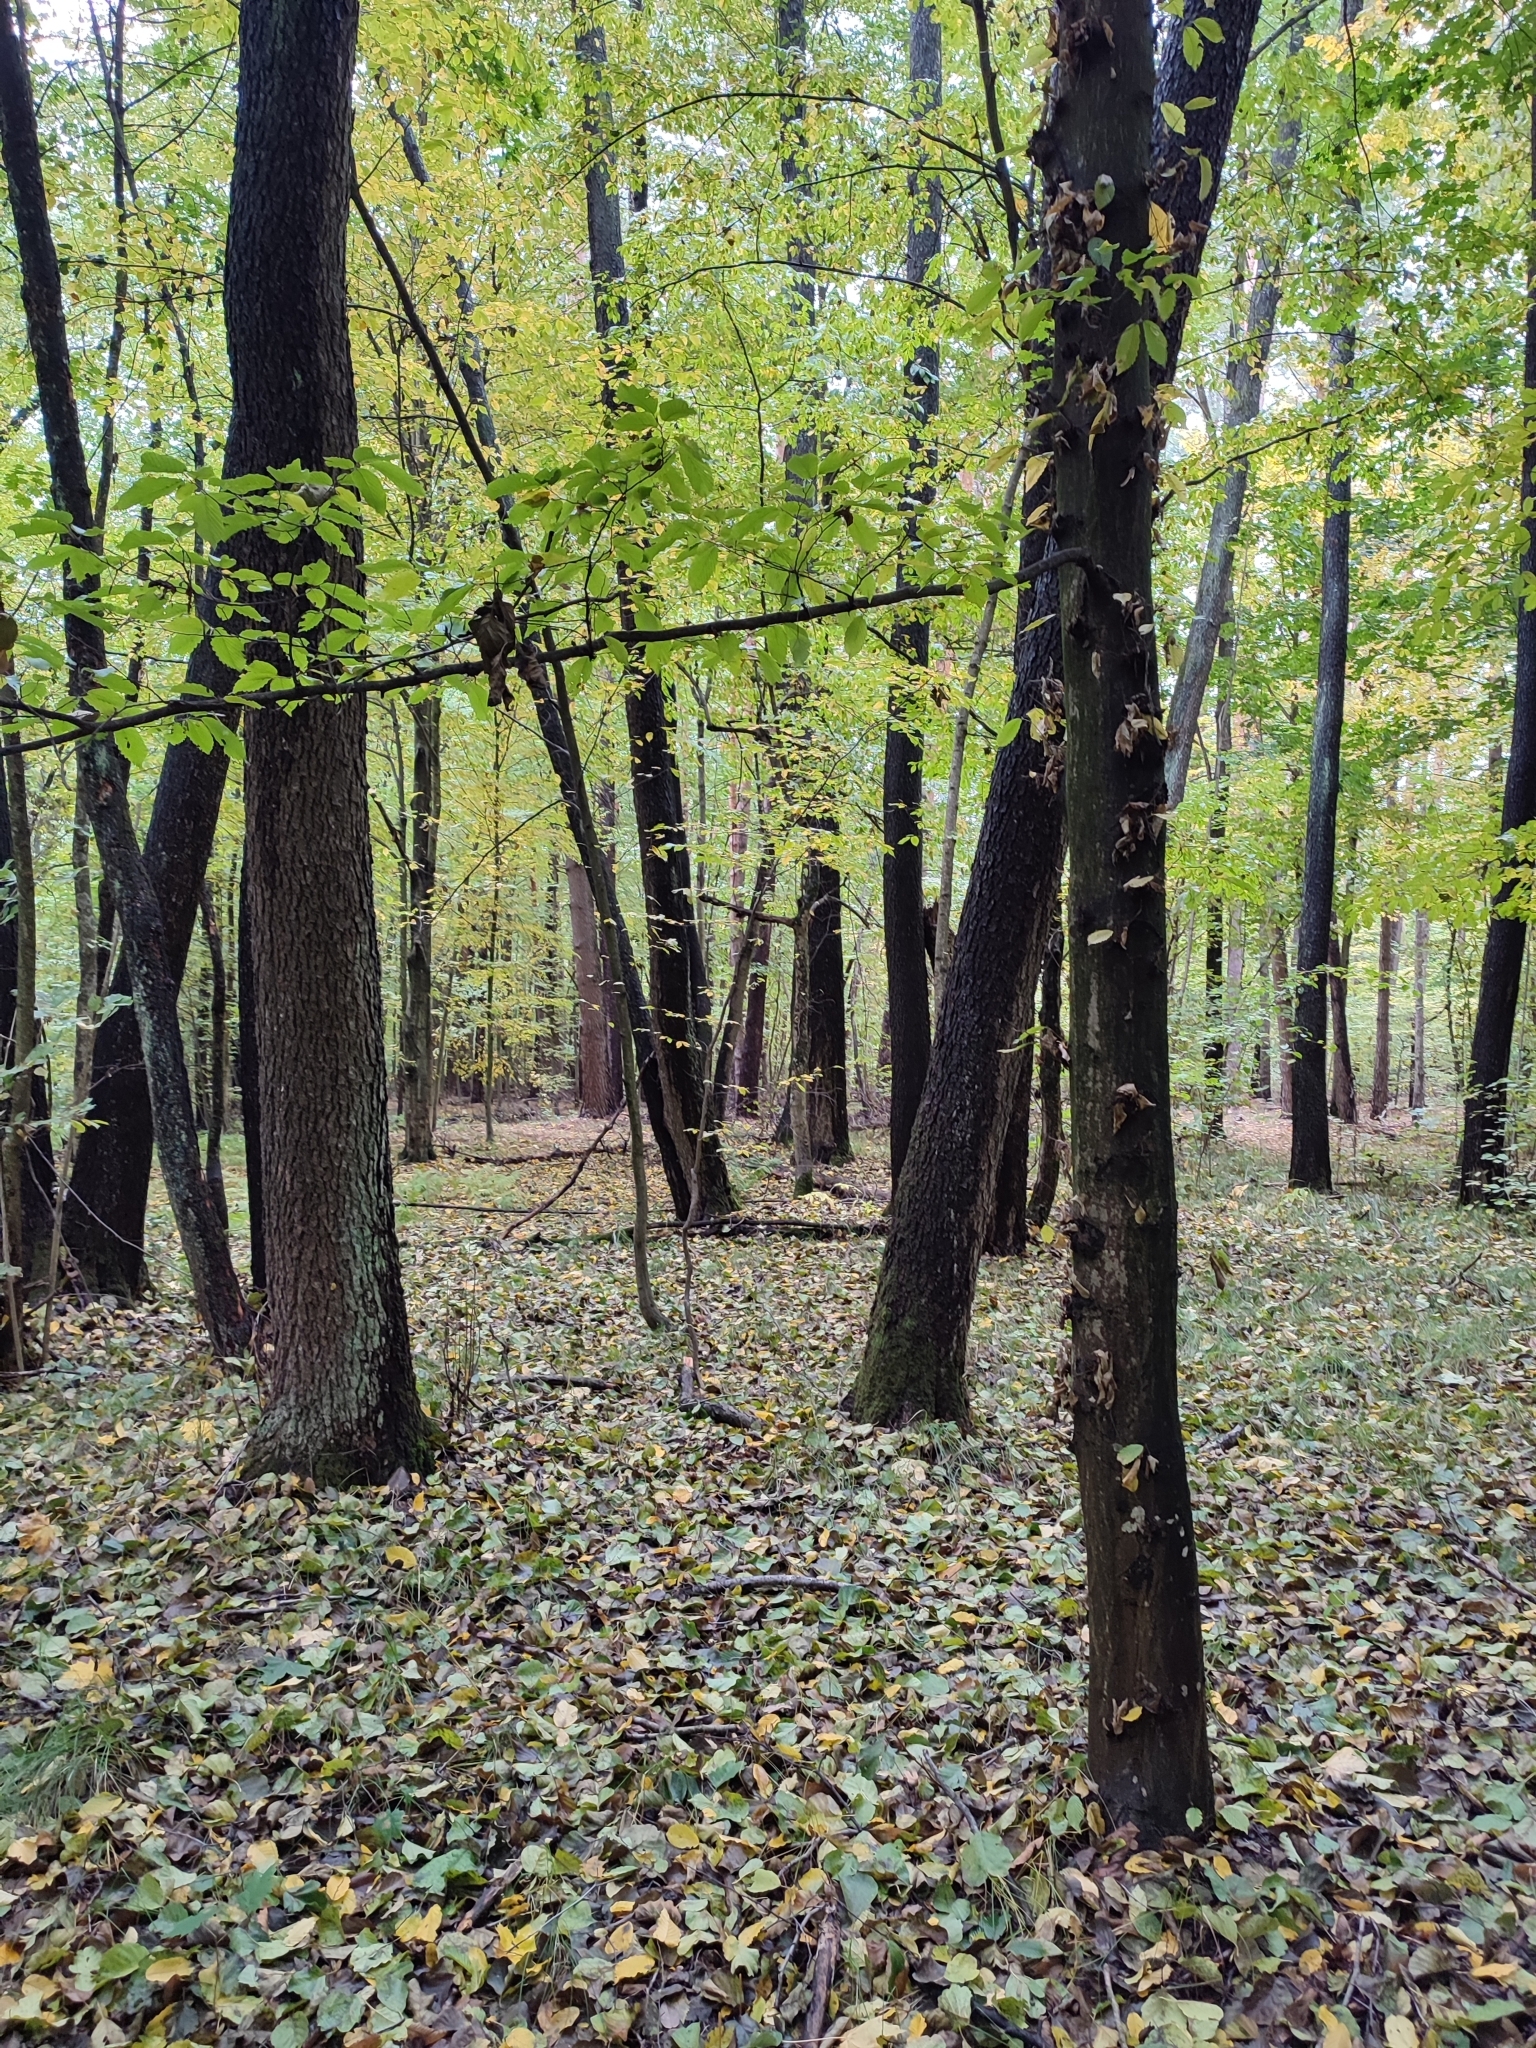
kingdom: Plantae
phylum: Tracheophyta
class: Magnoliopsida
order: Fagales
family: Betulaceae
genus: Carpinus
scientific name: Carpinus betulus
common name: Hornbeam
